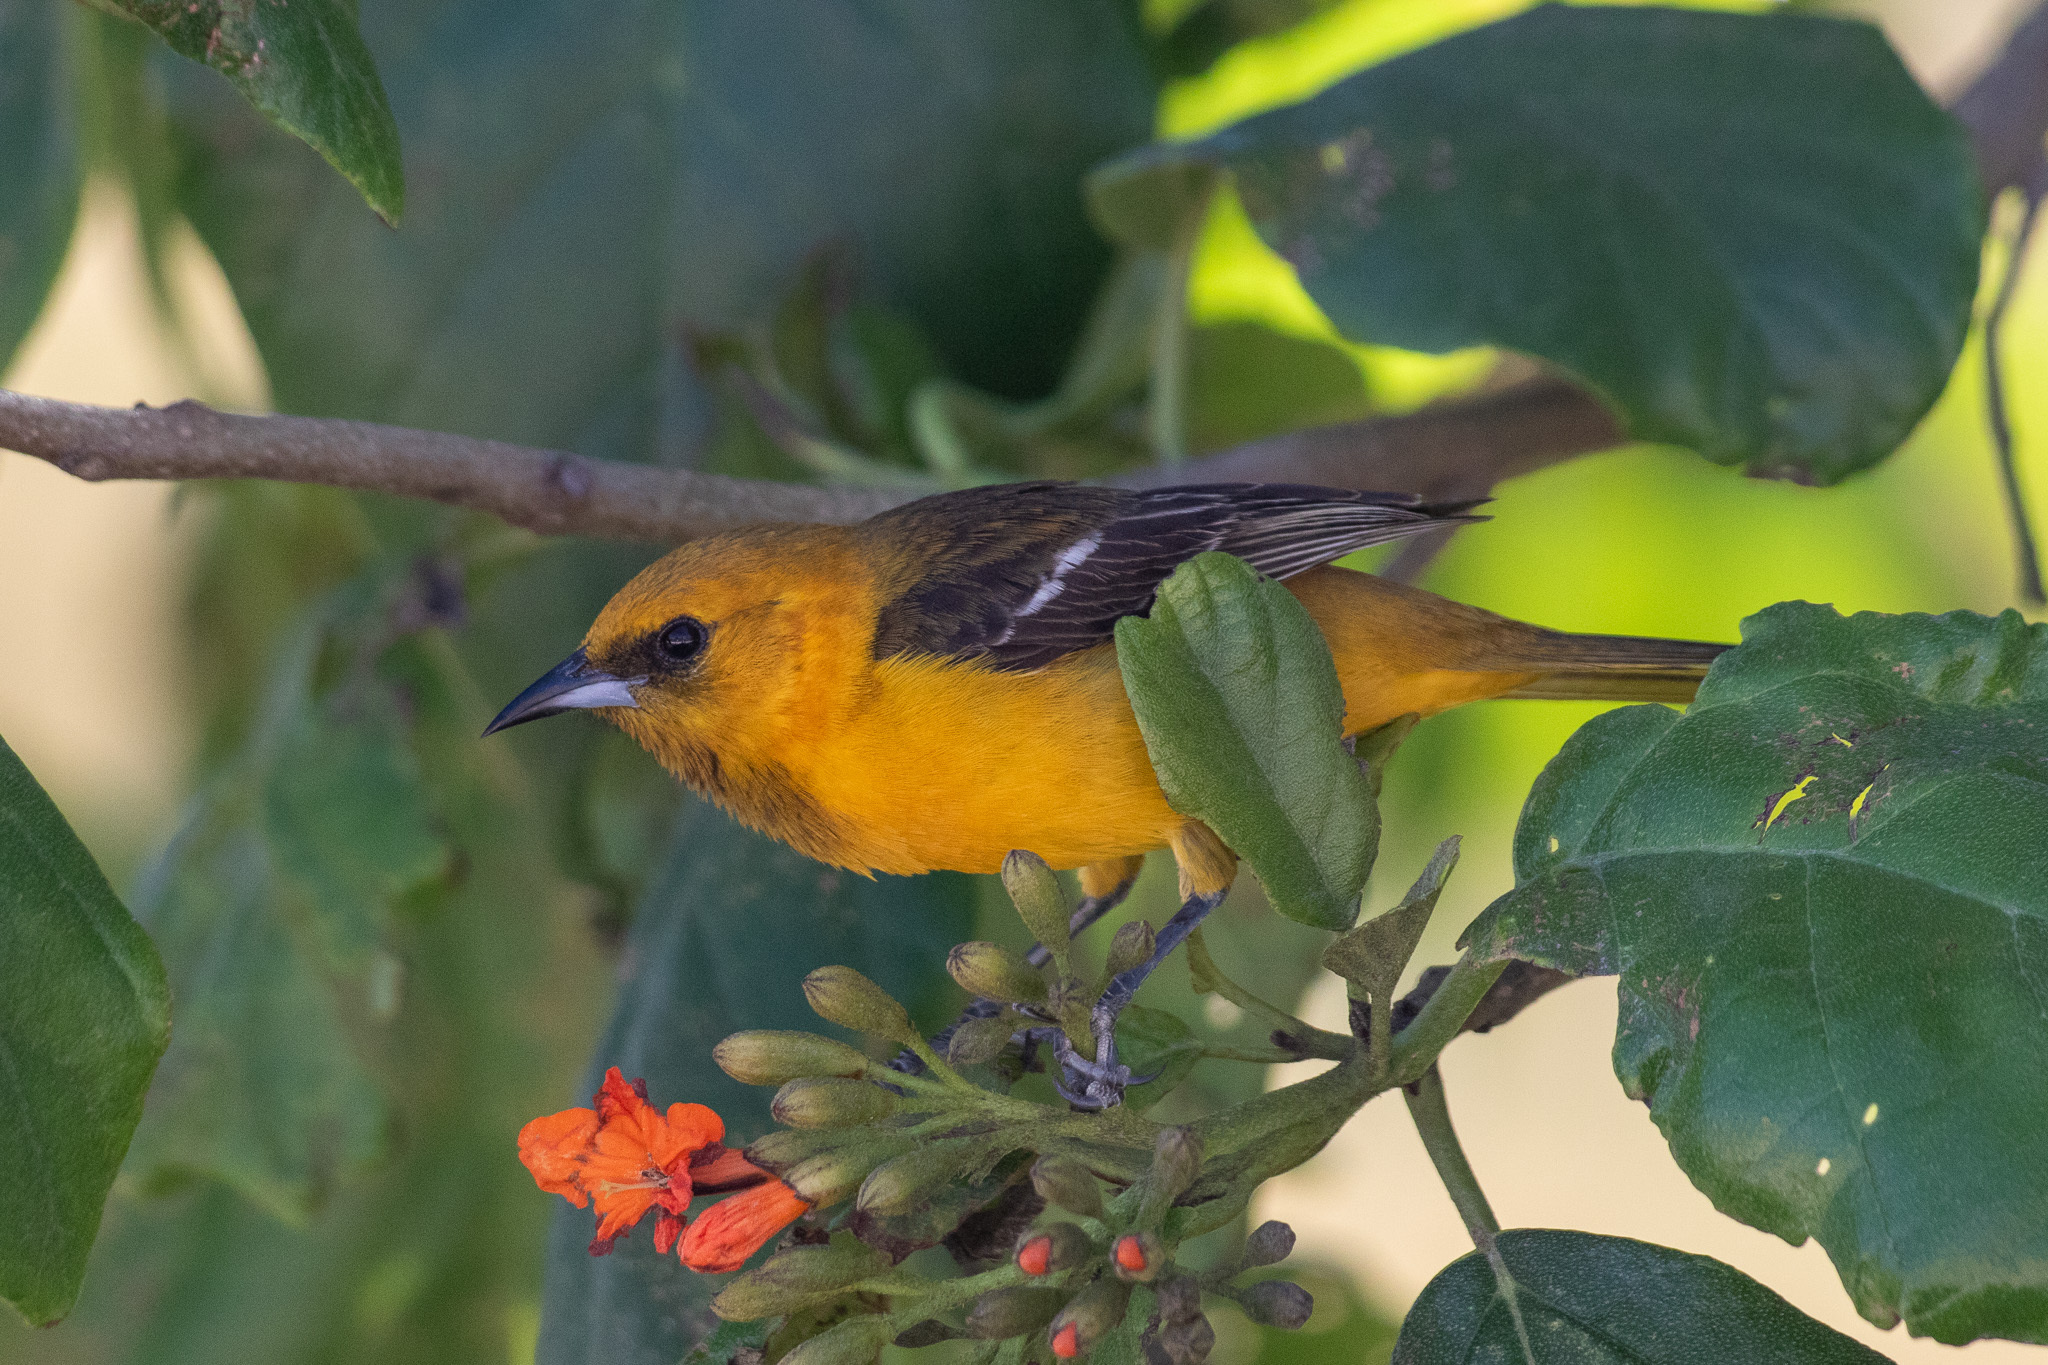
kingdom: Animalia
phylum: Chordata
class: Aves
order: Passeriformes
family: Icteridae
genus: Icterus
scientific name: Icterus cucullatus
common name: Hooded oriole
